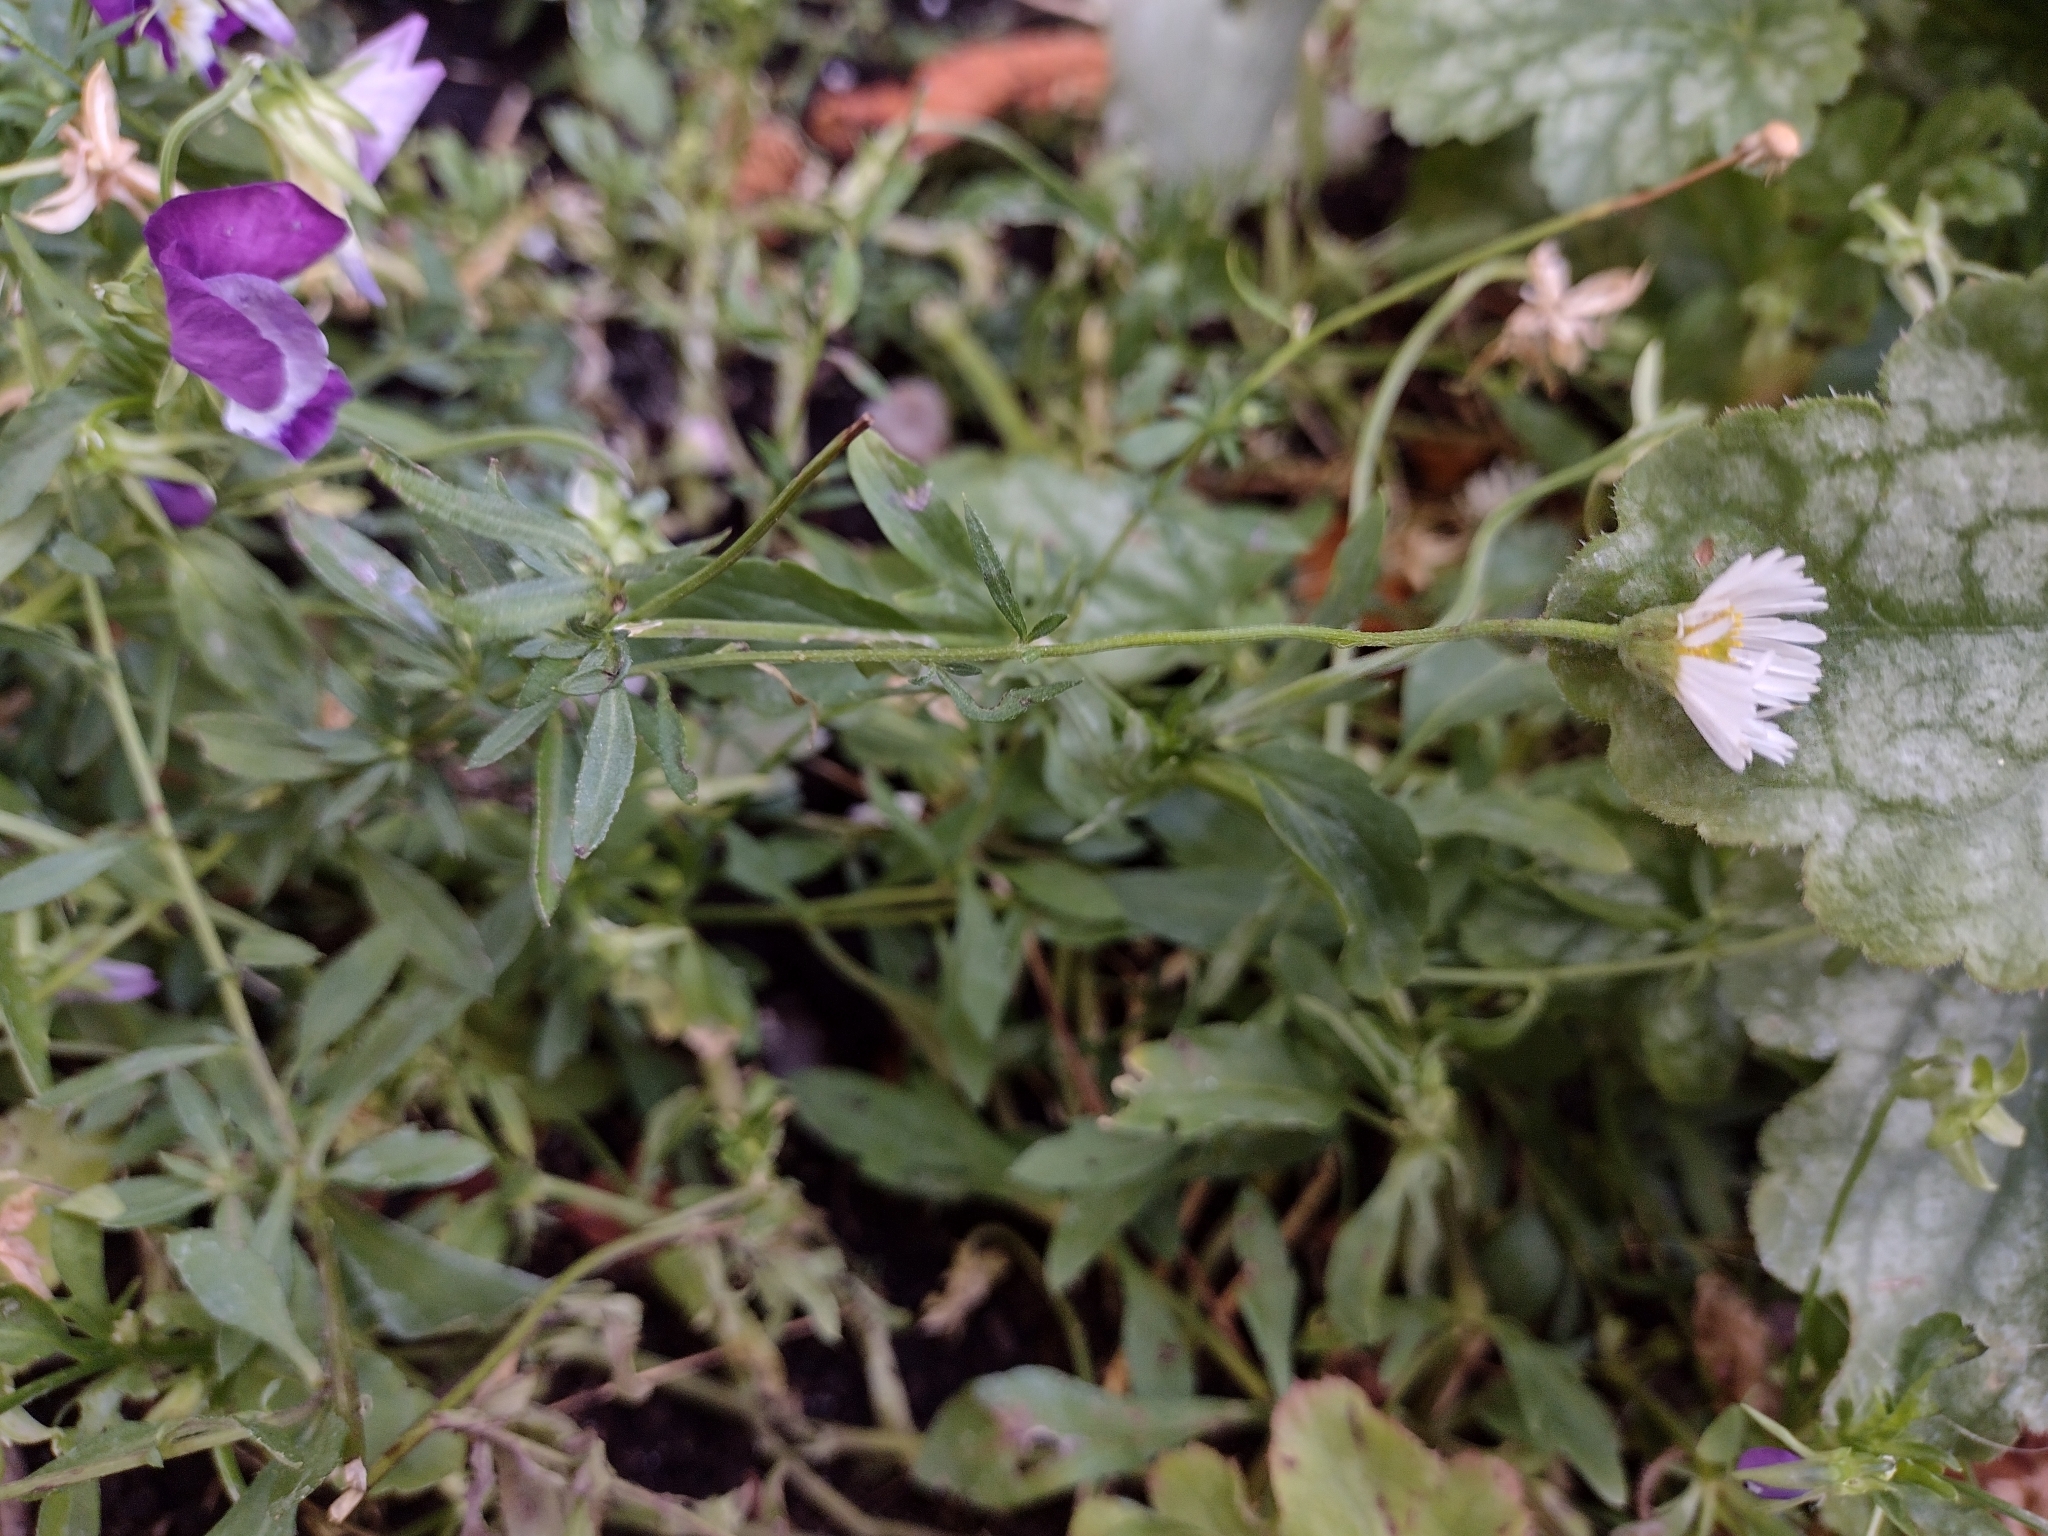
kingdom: Plantae
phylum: Tracheophyta
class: Magnoliopsida
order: Asterales
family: Asteraceae
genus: Erigeron
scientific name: Erigeron karvinskianus
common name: Mexican fleabane
